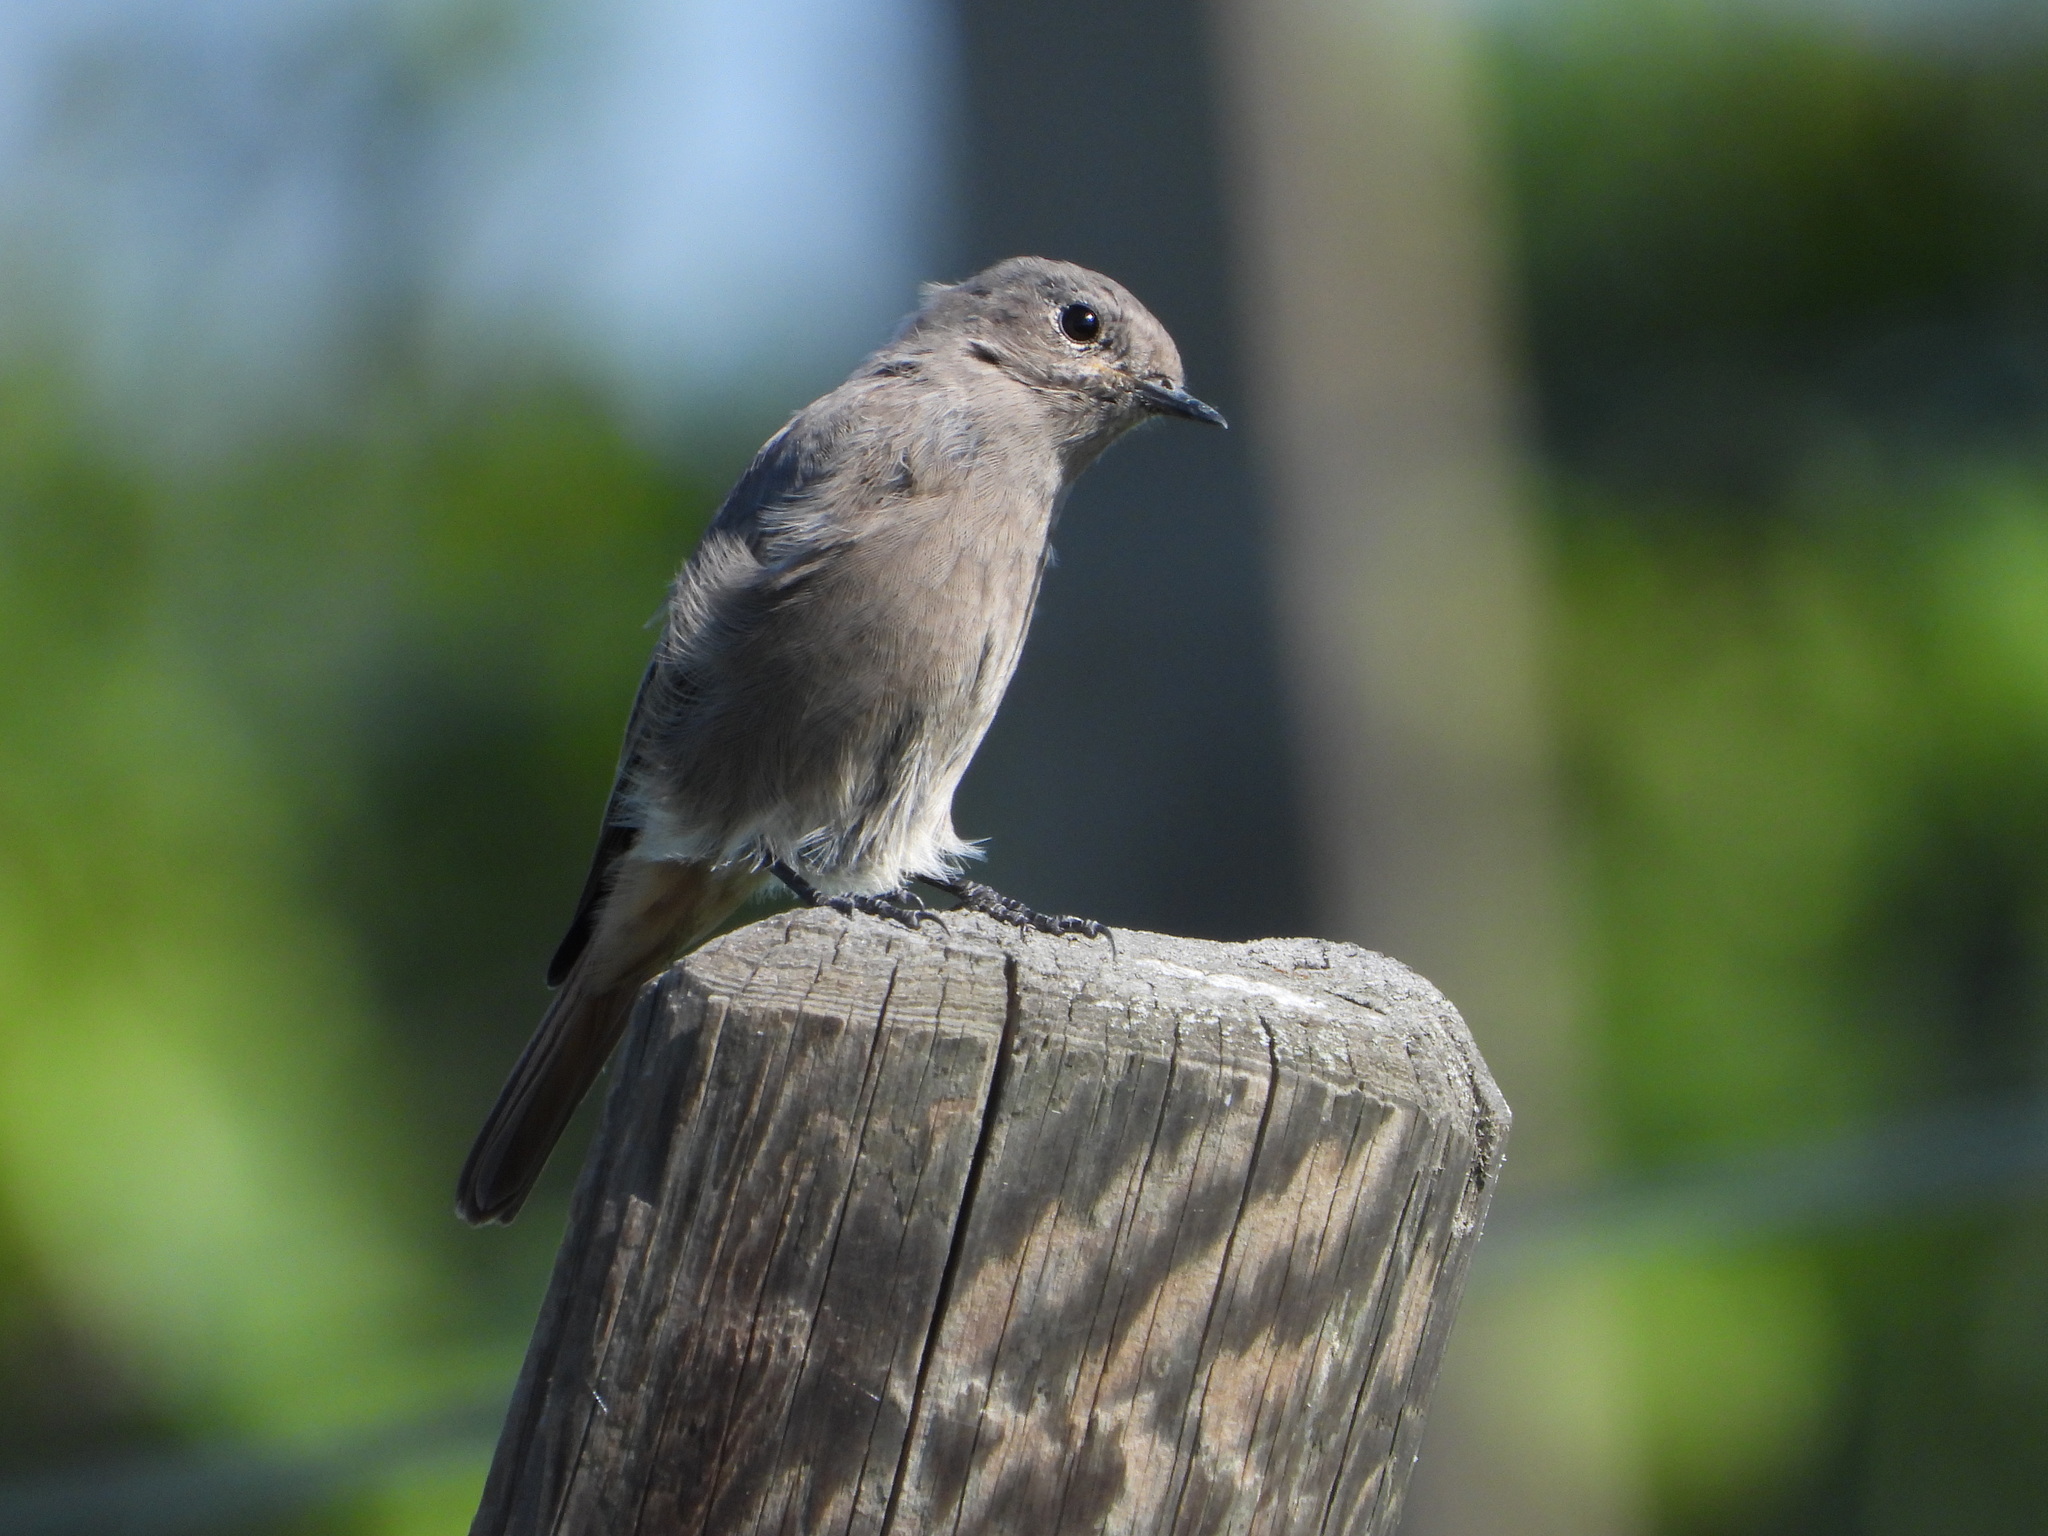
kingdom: Animalia
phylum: Chordata
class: Aves
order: Passeriformes
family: Muscicapidae
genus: Phoenicurus
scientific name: Phoenicurus ochruros
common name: Black redstart
